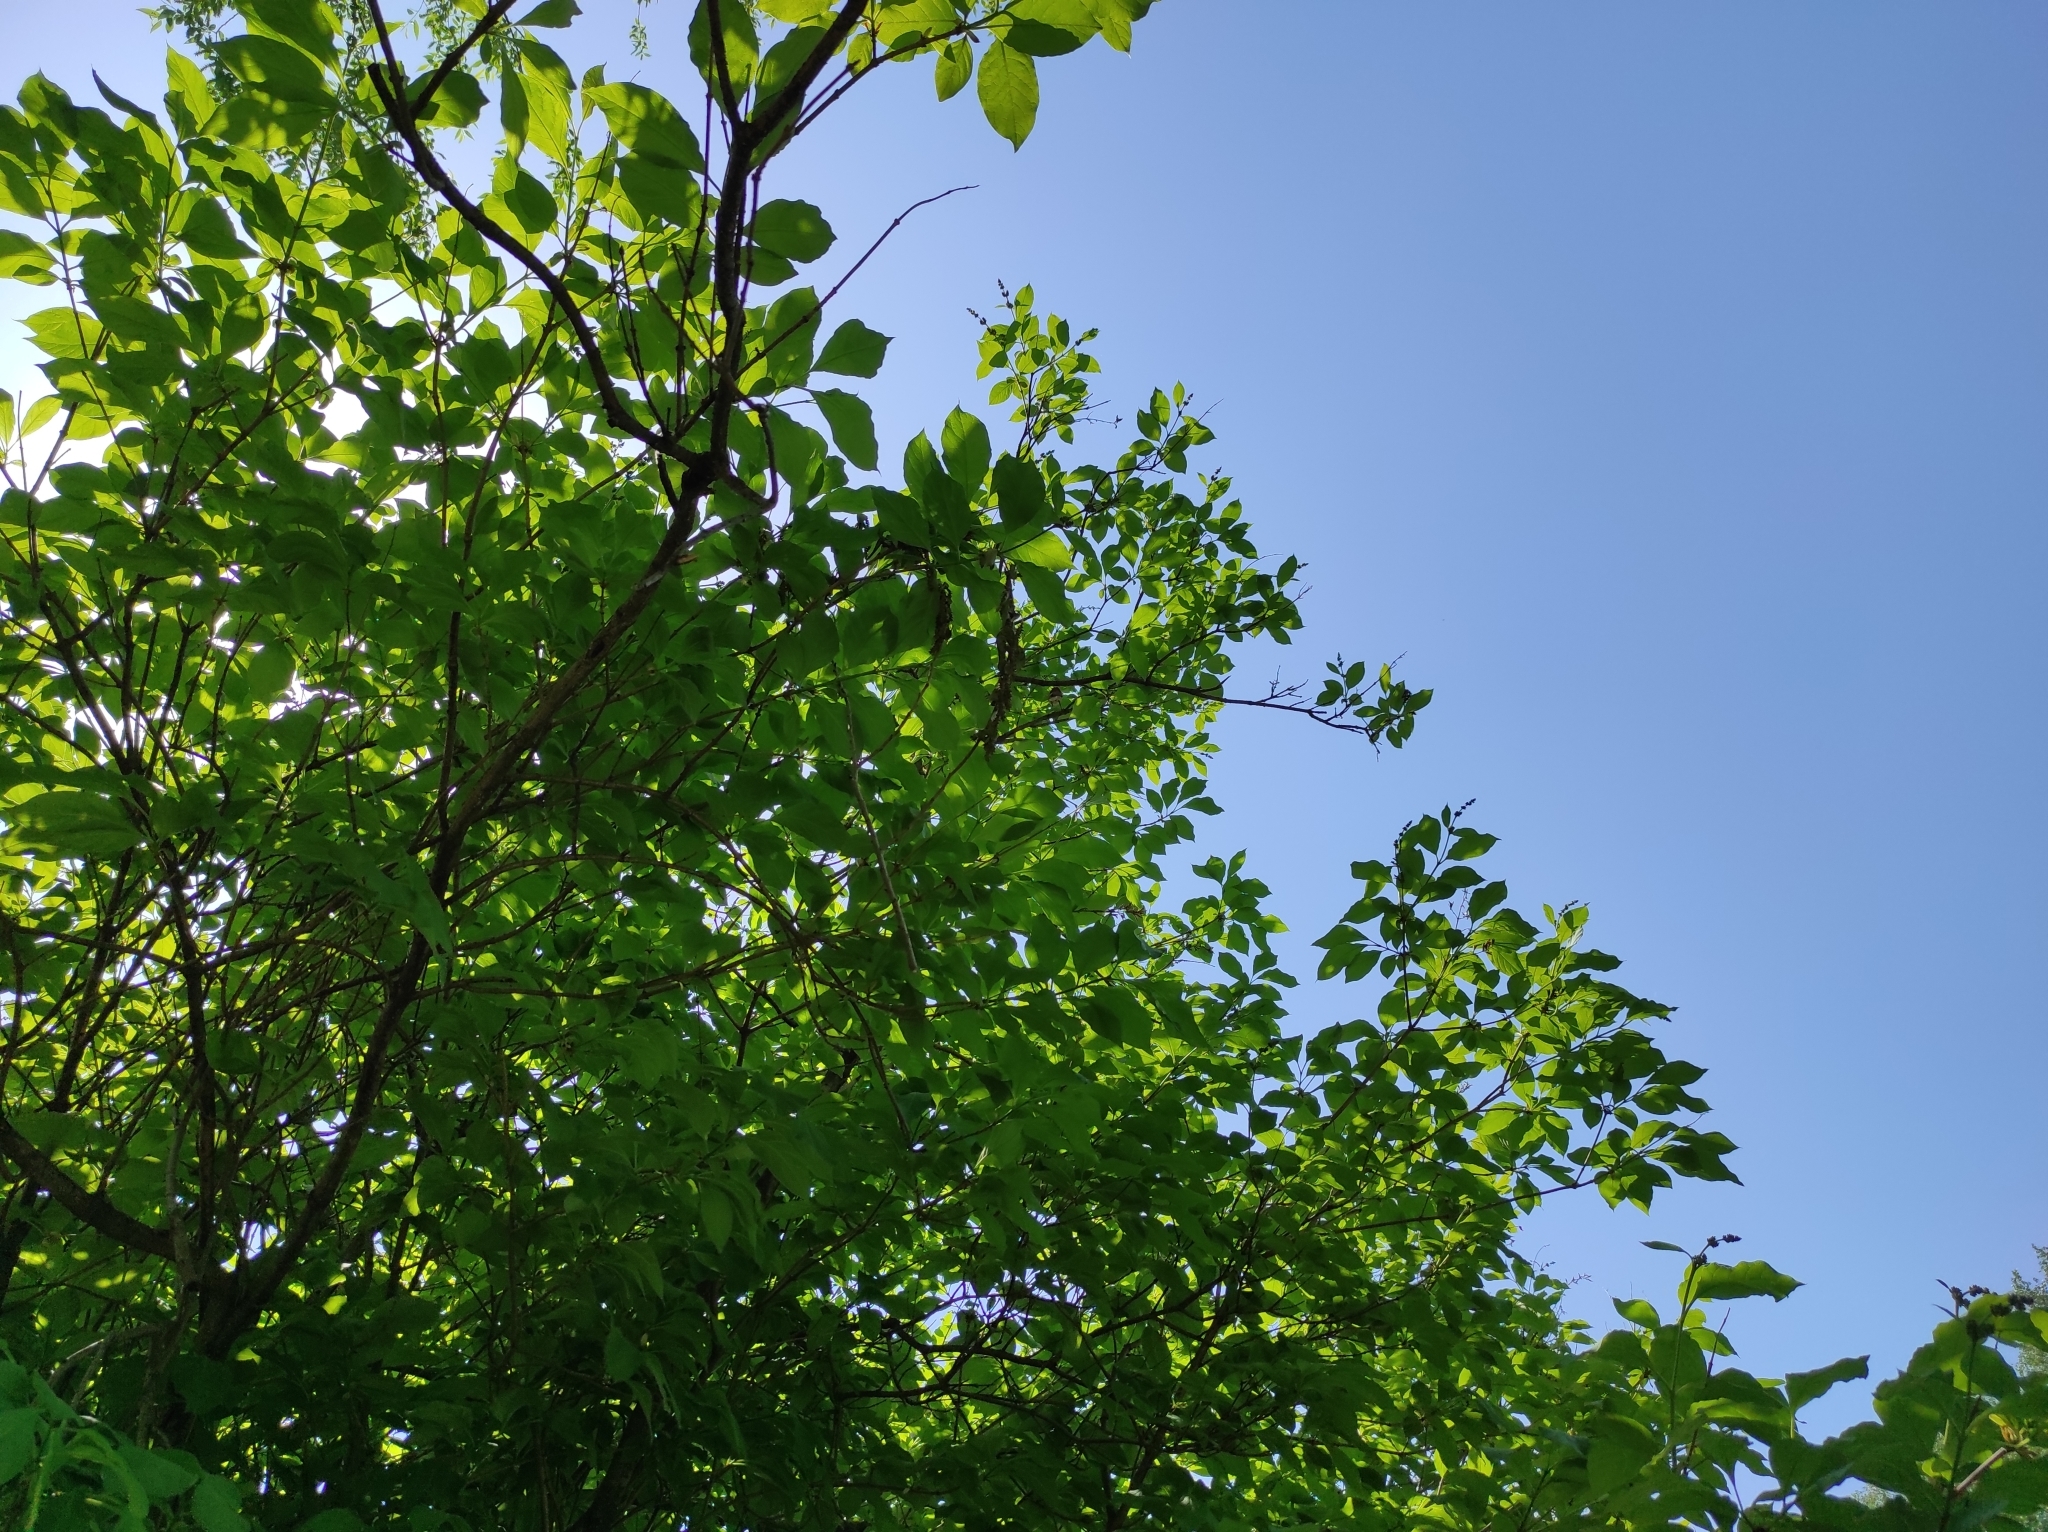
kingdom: Animalia
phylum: Chordata
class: Aves
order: Passeriformes
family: Muscicapidae
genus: Phoenicurus
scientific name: Phoenicurus phoenicurus
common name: Common redstart
